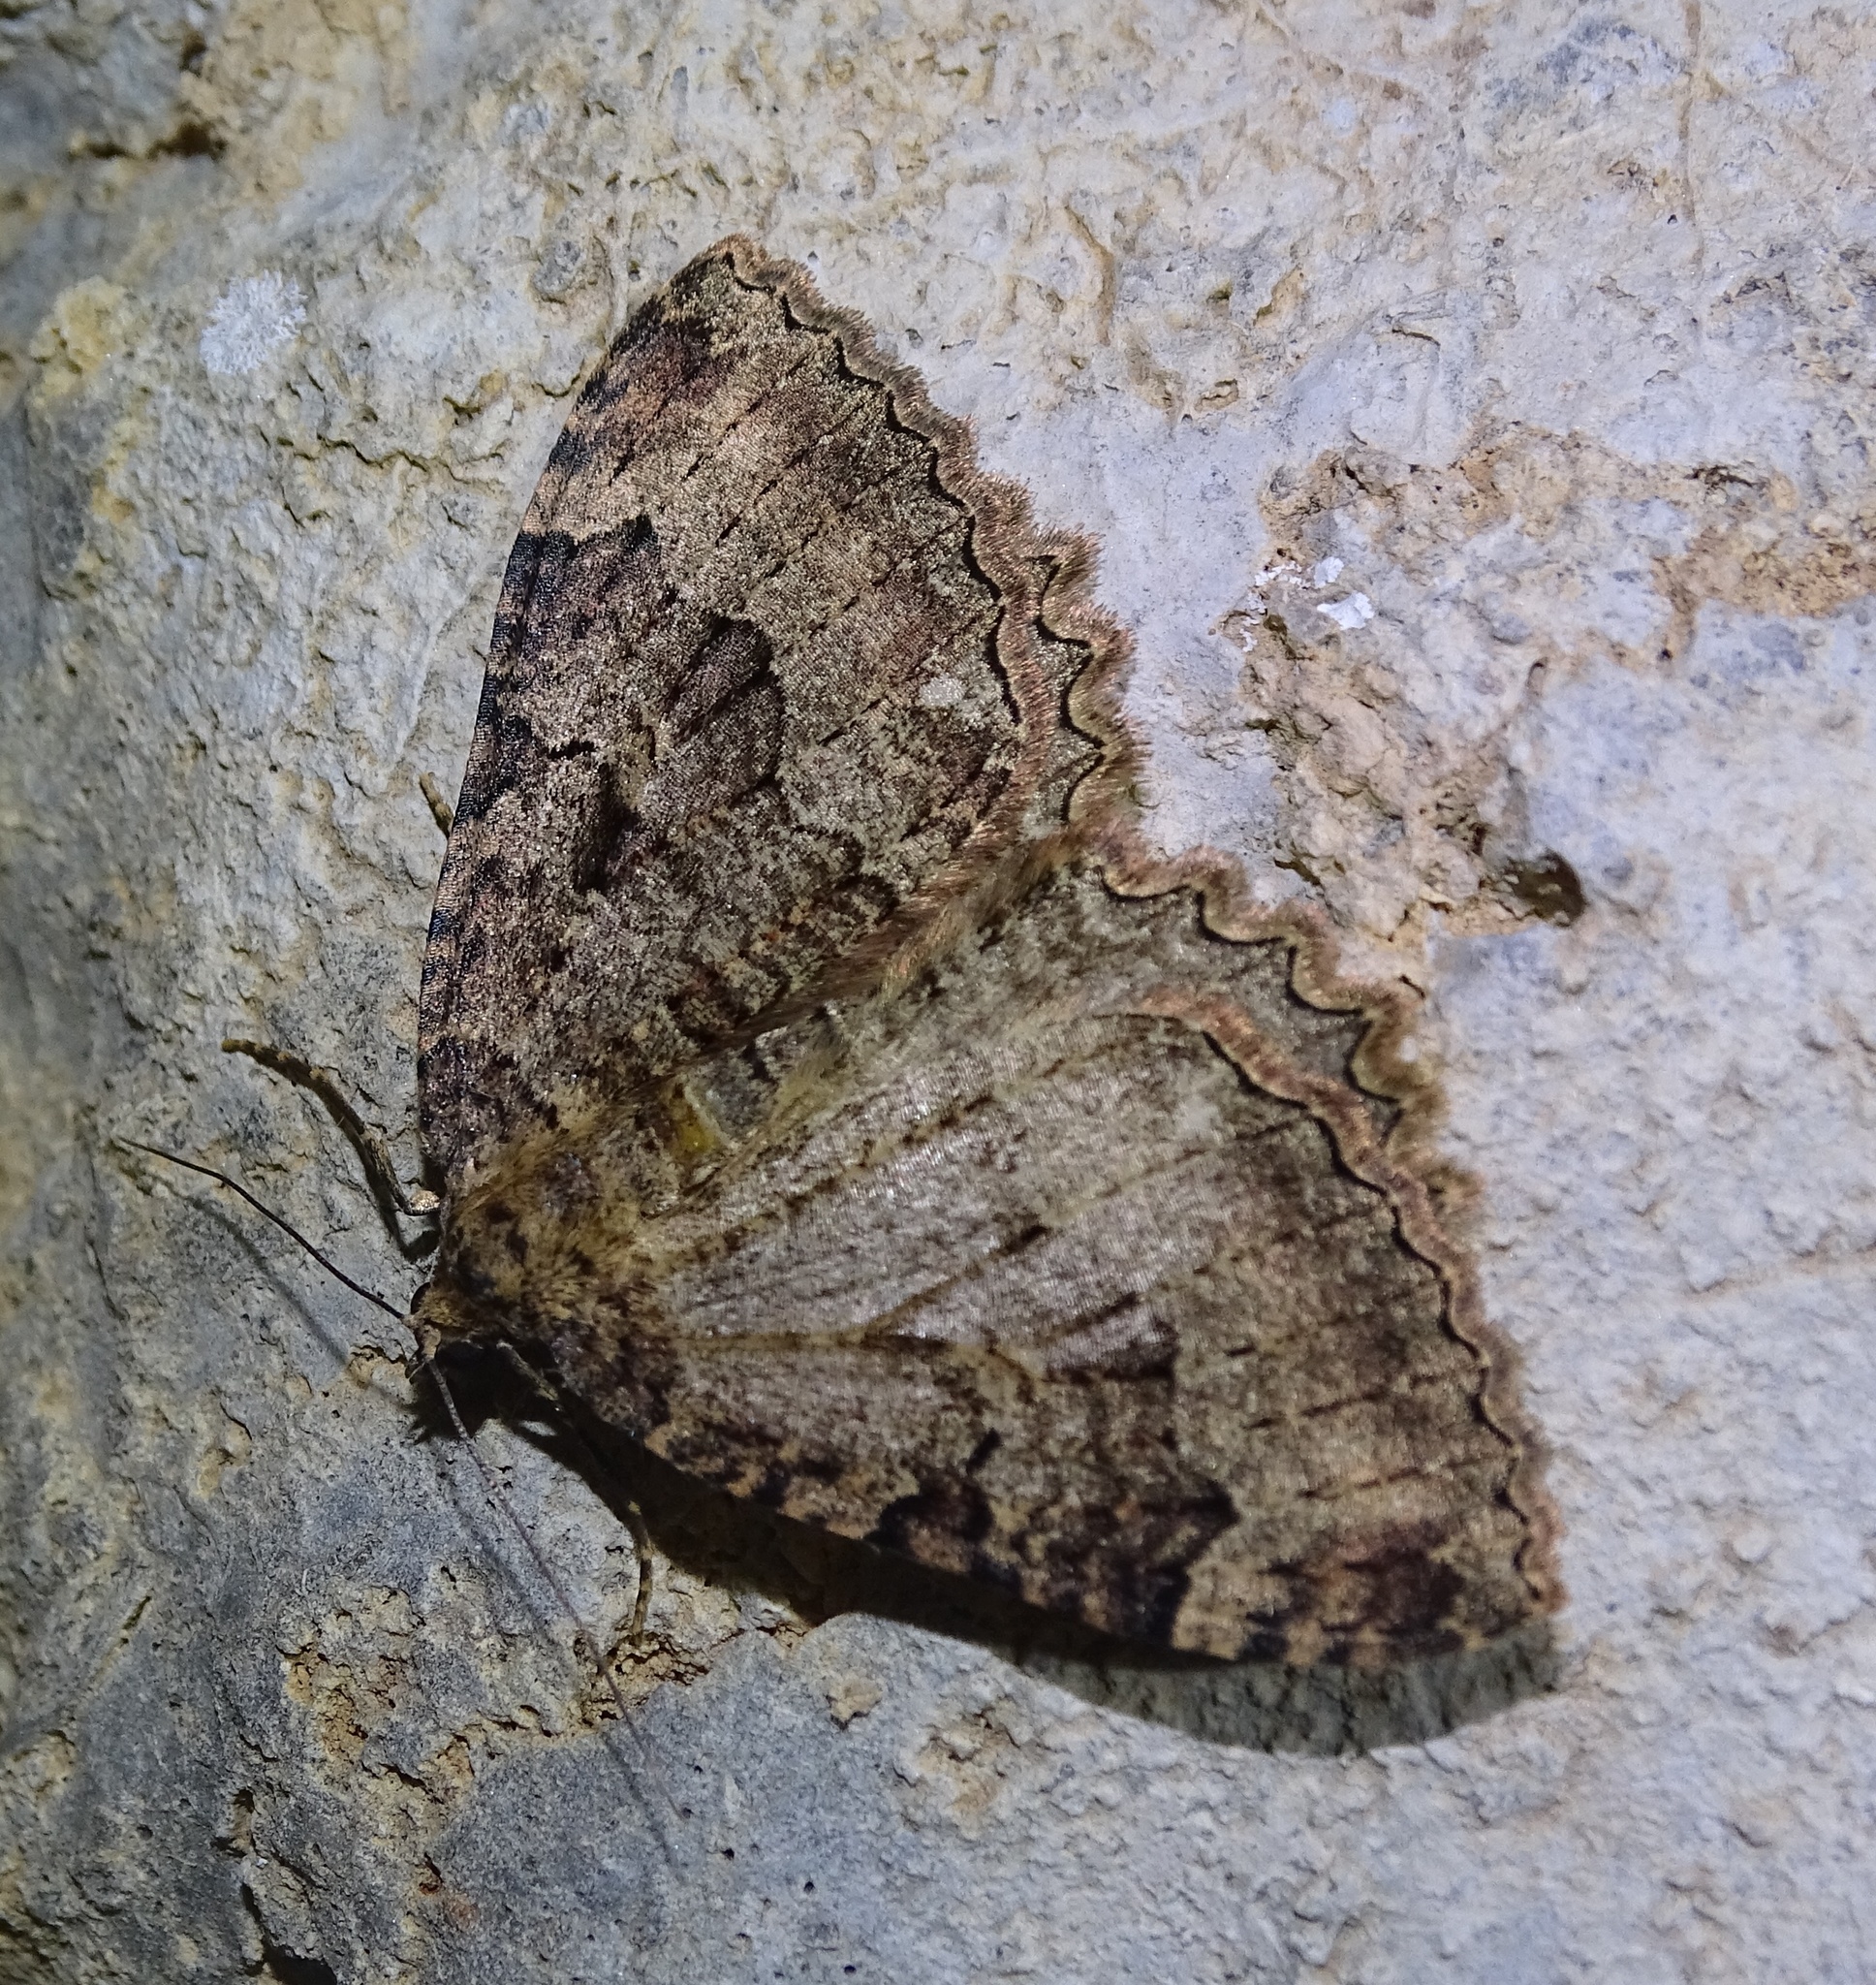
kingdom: Animalia
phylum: Arthropoda
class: Insecta
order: Lepidoptera
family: Geometridae
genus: Triphosa
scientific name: Triphosa dubitata
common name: Tissue
